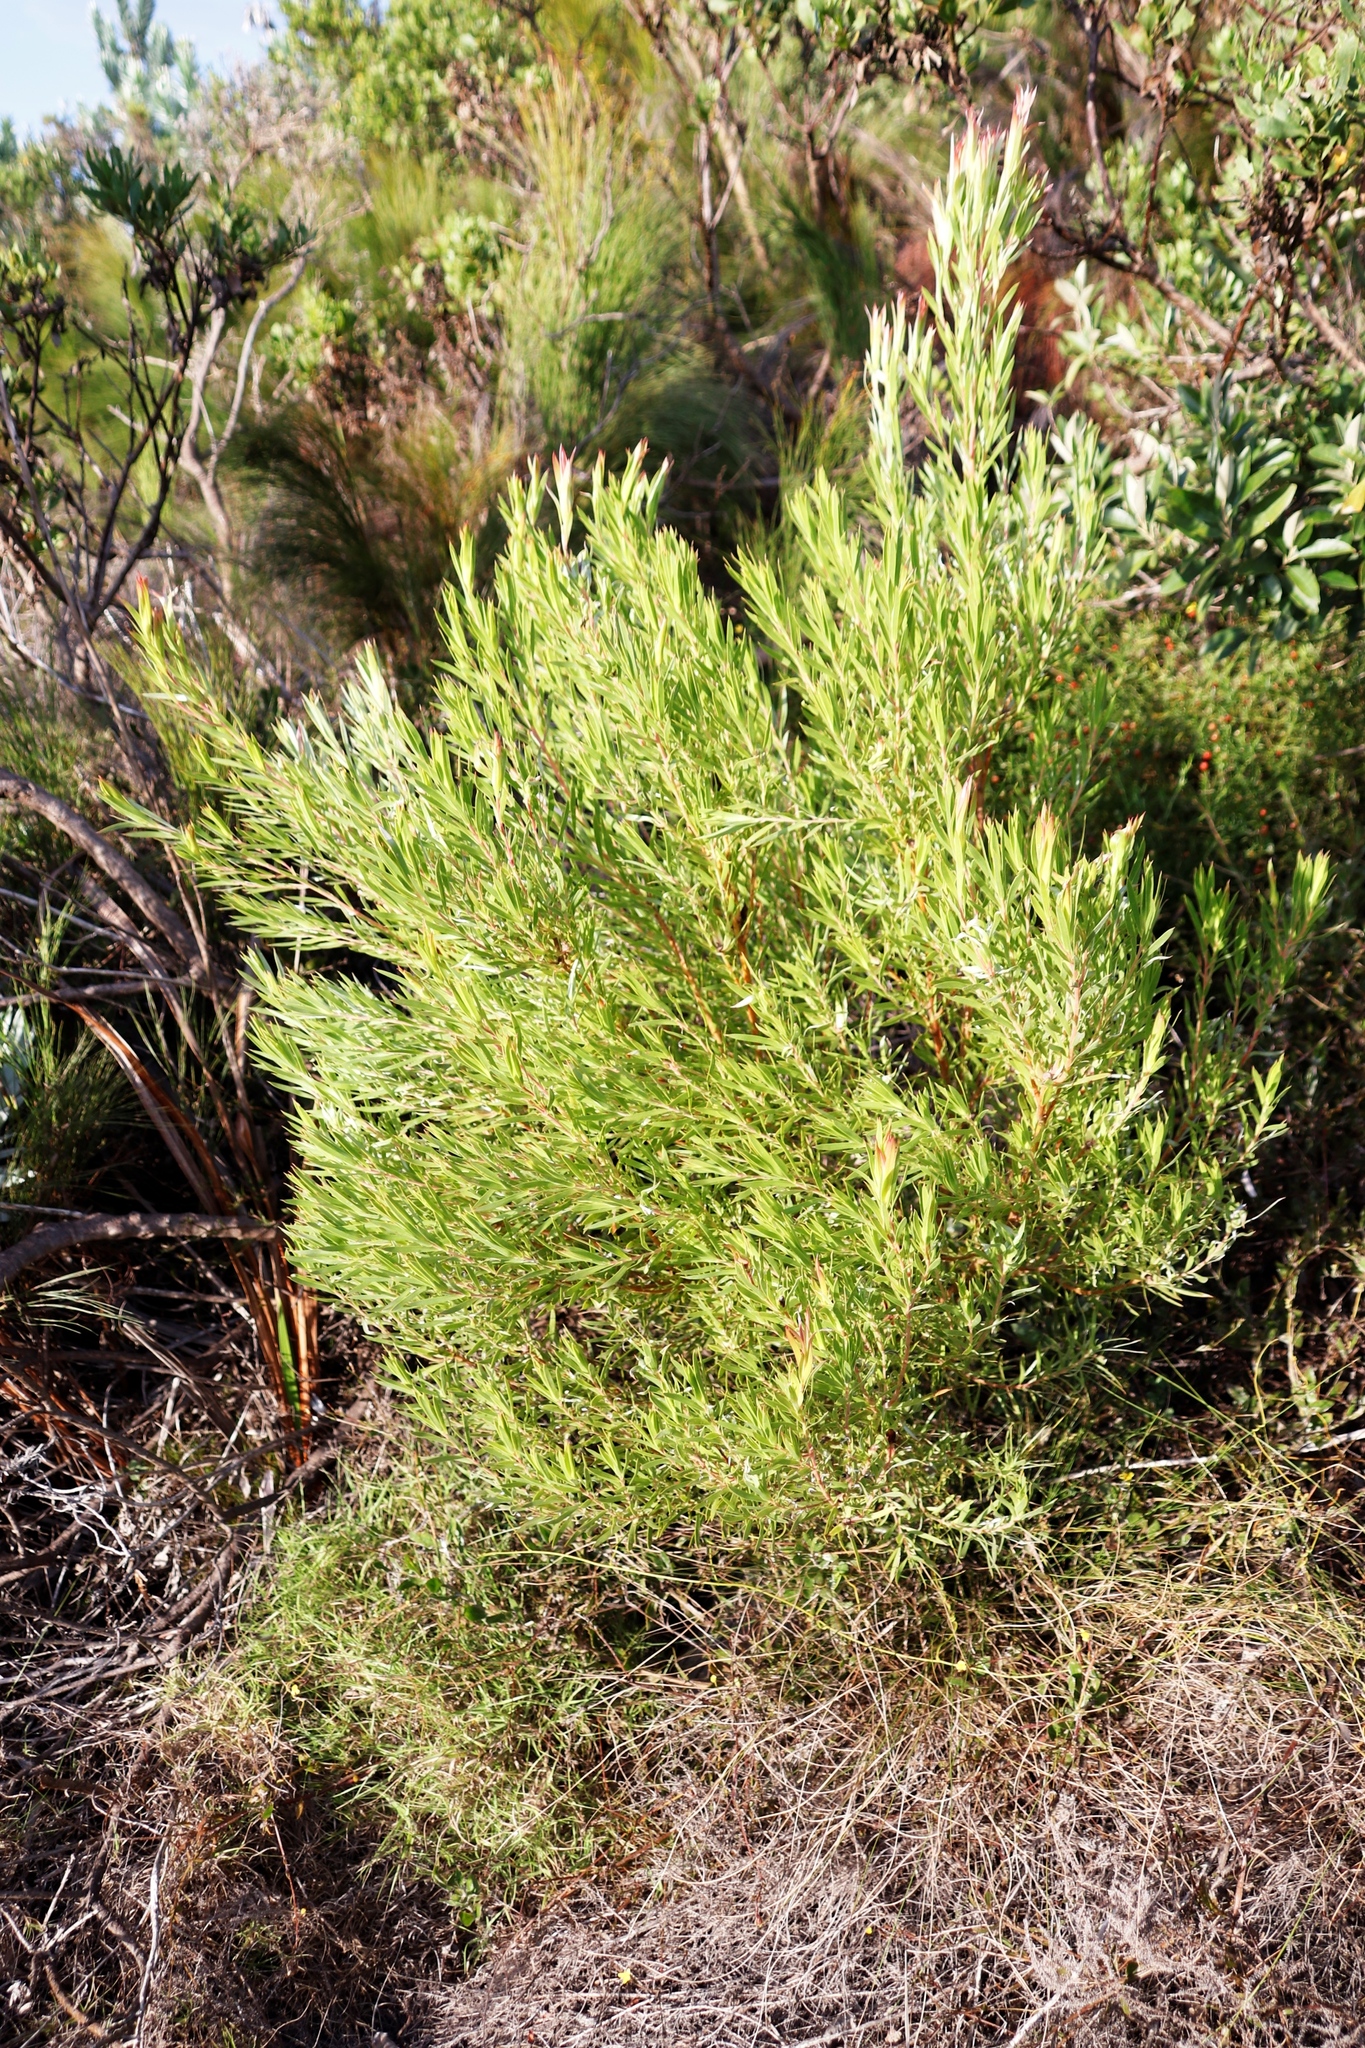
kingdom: Plantae
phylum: Tracheophyta
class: Magnoliopsida
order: Proteales
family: Proteaceae
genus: Leucadendron
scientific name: Leucadendron xanthoconus
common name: Sickle-leaf conebush
